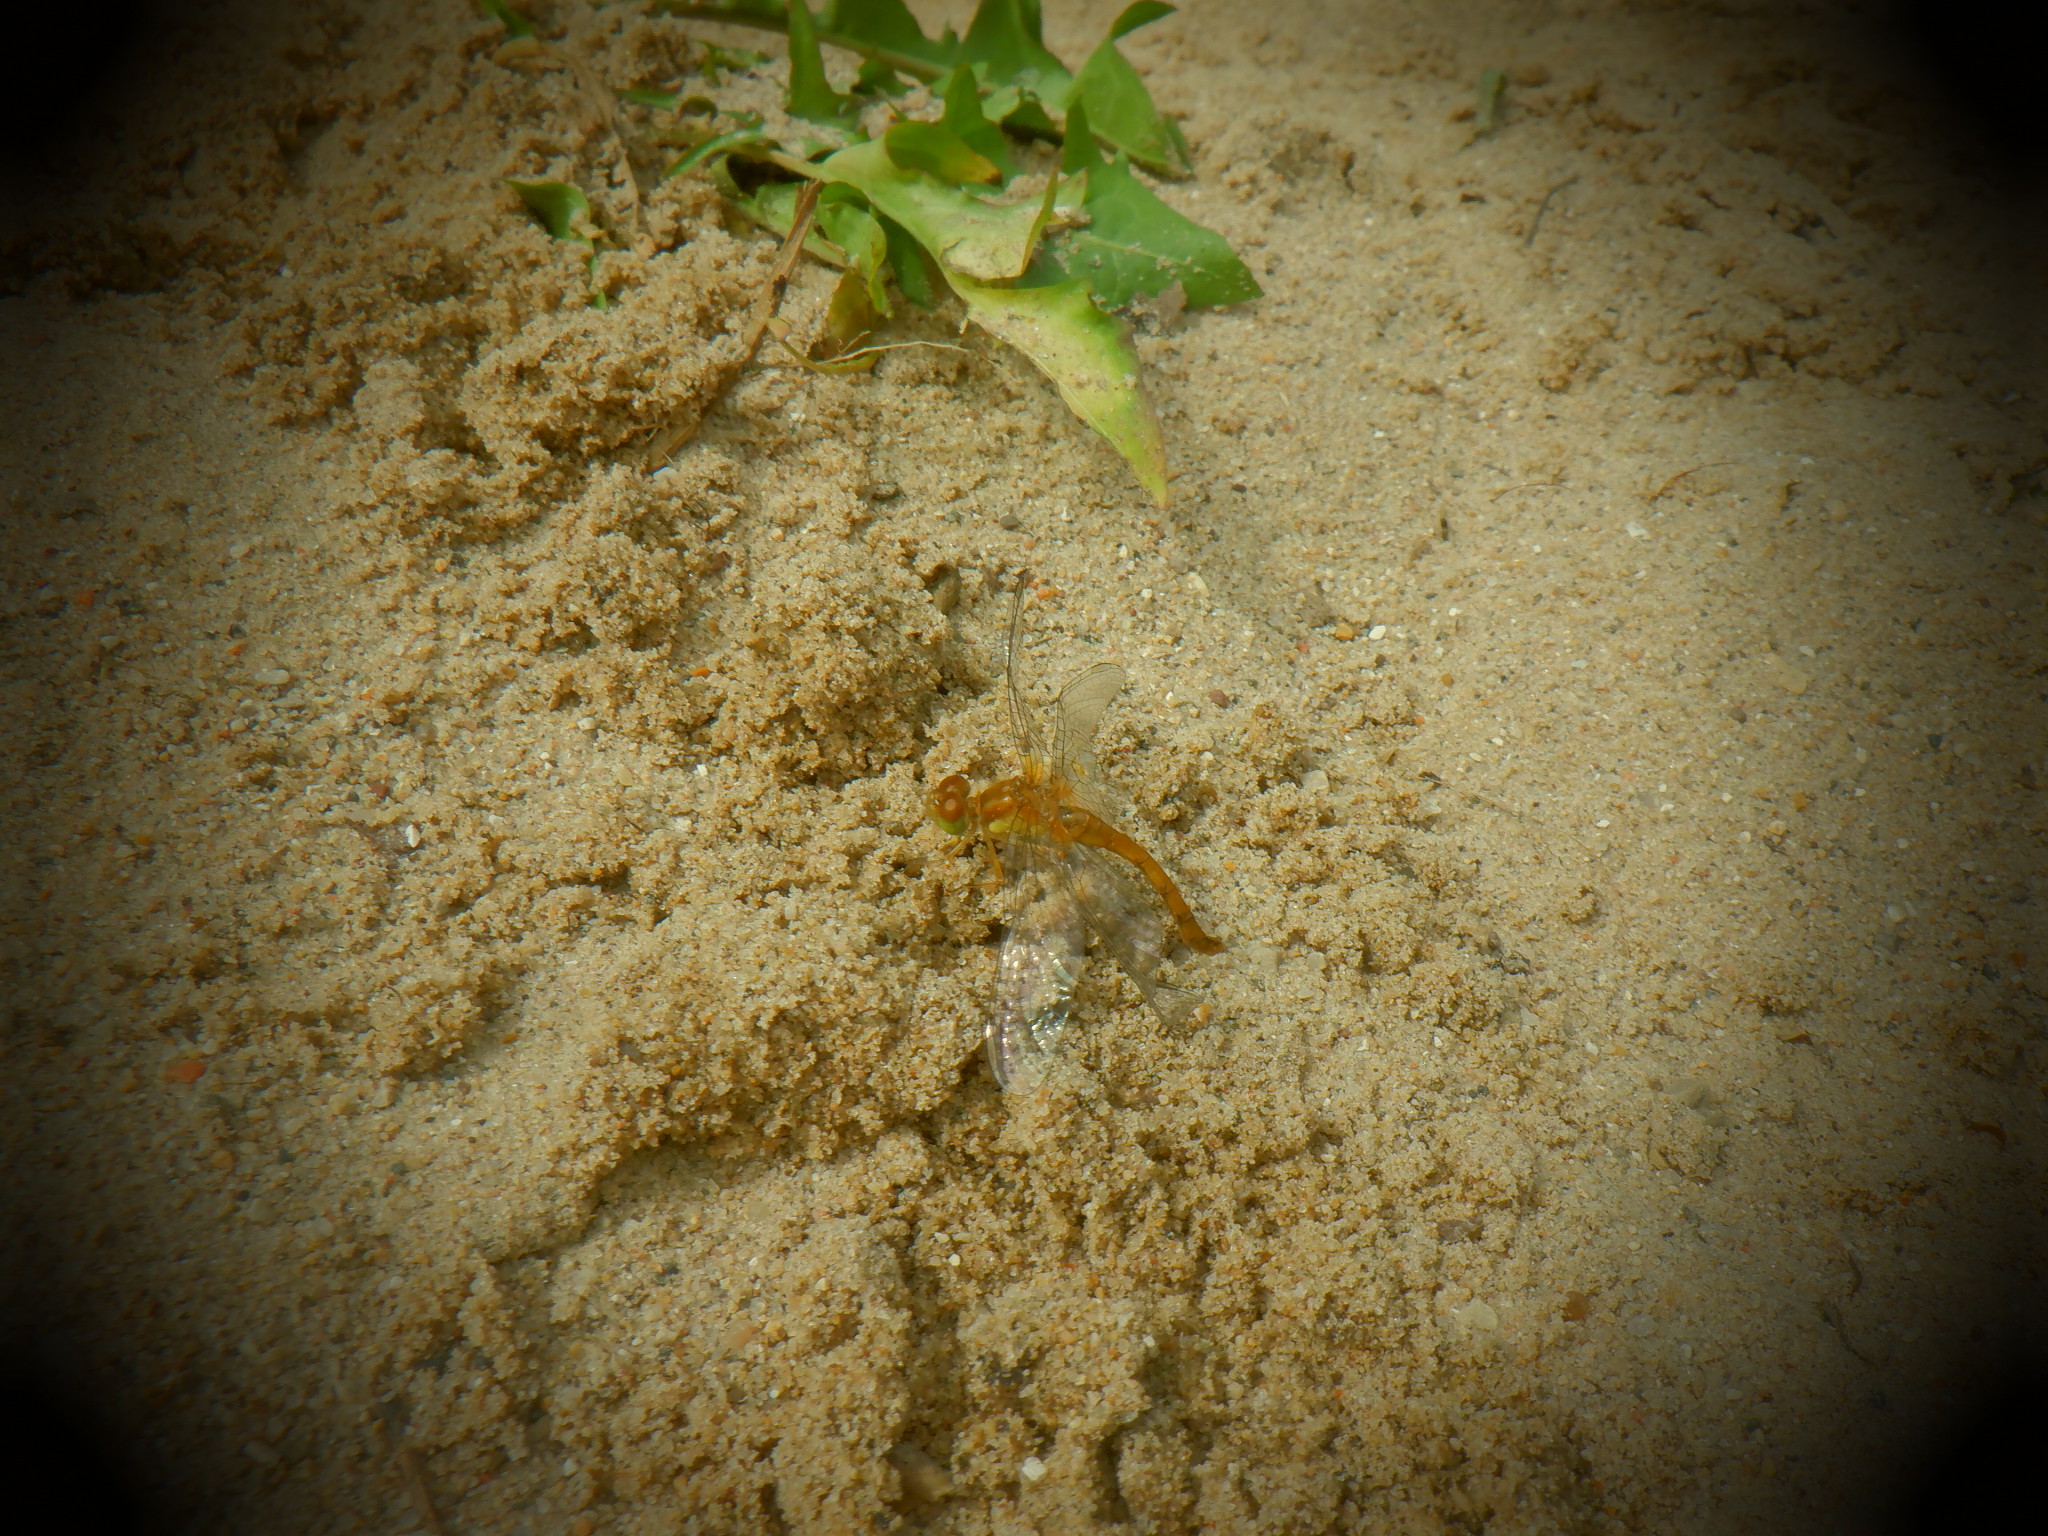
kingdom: Animalia
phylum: Arthropoda
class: Insecta
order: Odonata
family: Libellulidae
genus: Sympetrum
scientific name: Sympetrum vicinum
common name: Autumn meadowhawk
